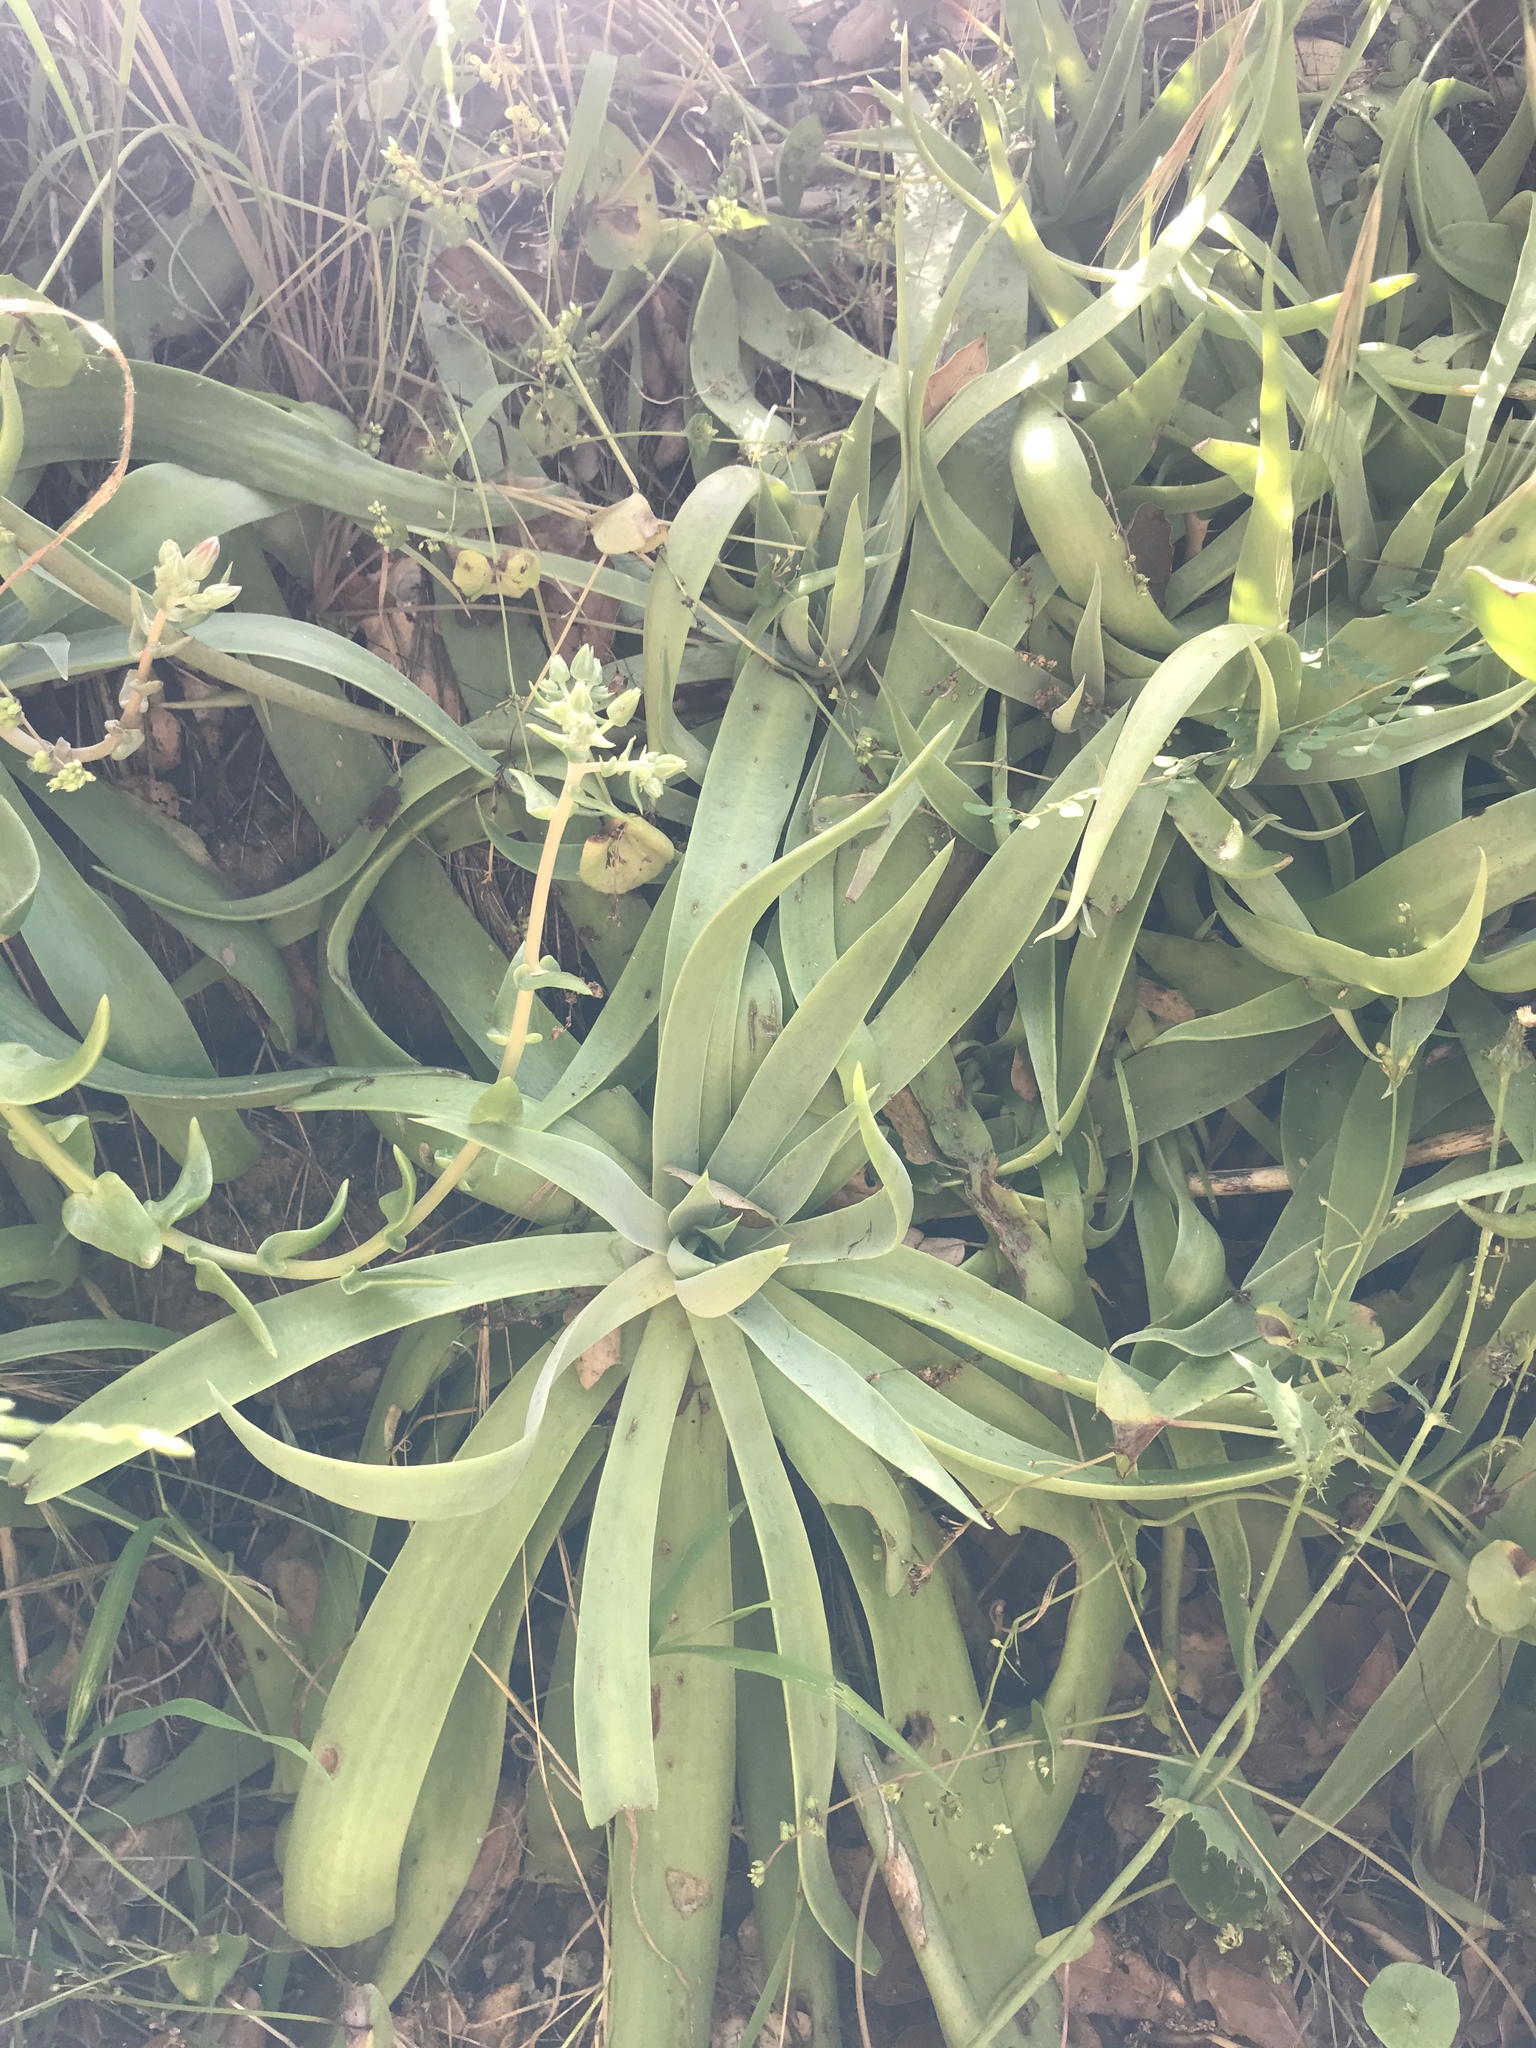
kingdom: Plantae
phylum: Tracheophyta
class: Magnoliopsida
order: Saxifragales
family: Crassulaceae
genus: Dudleya
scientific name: Dudleya lanceolata
